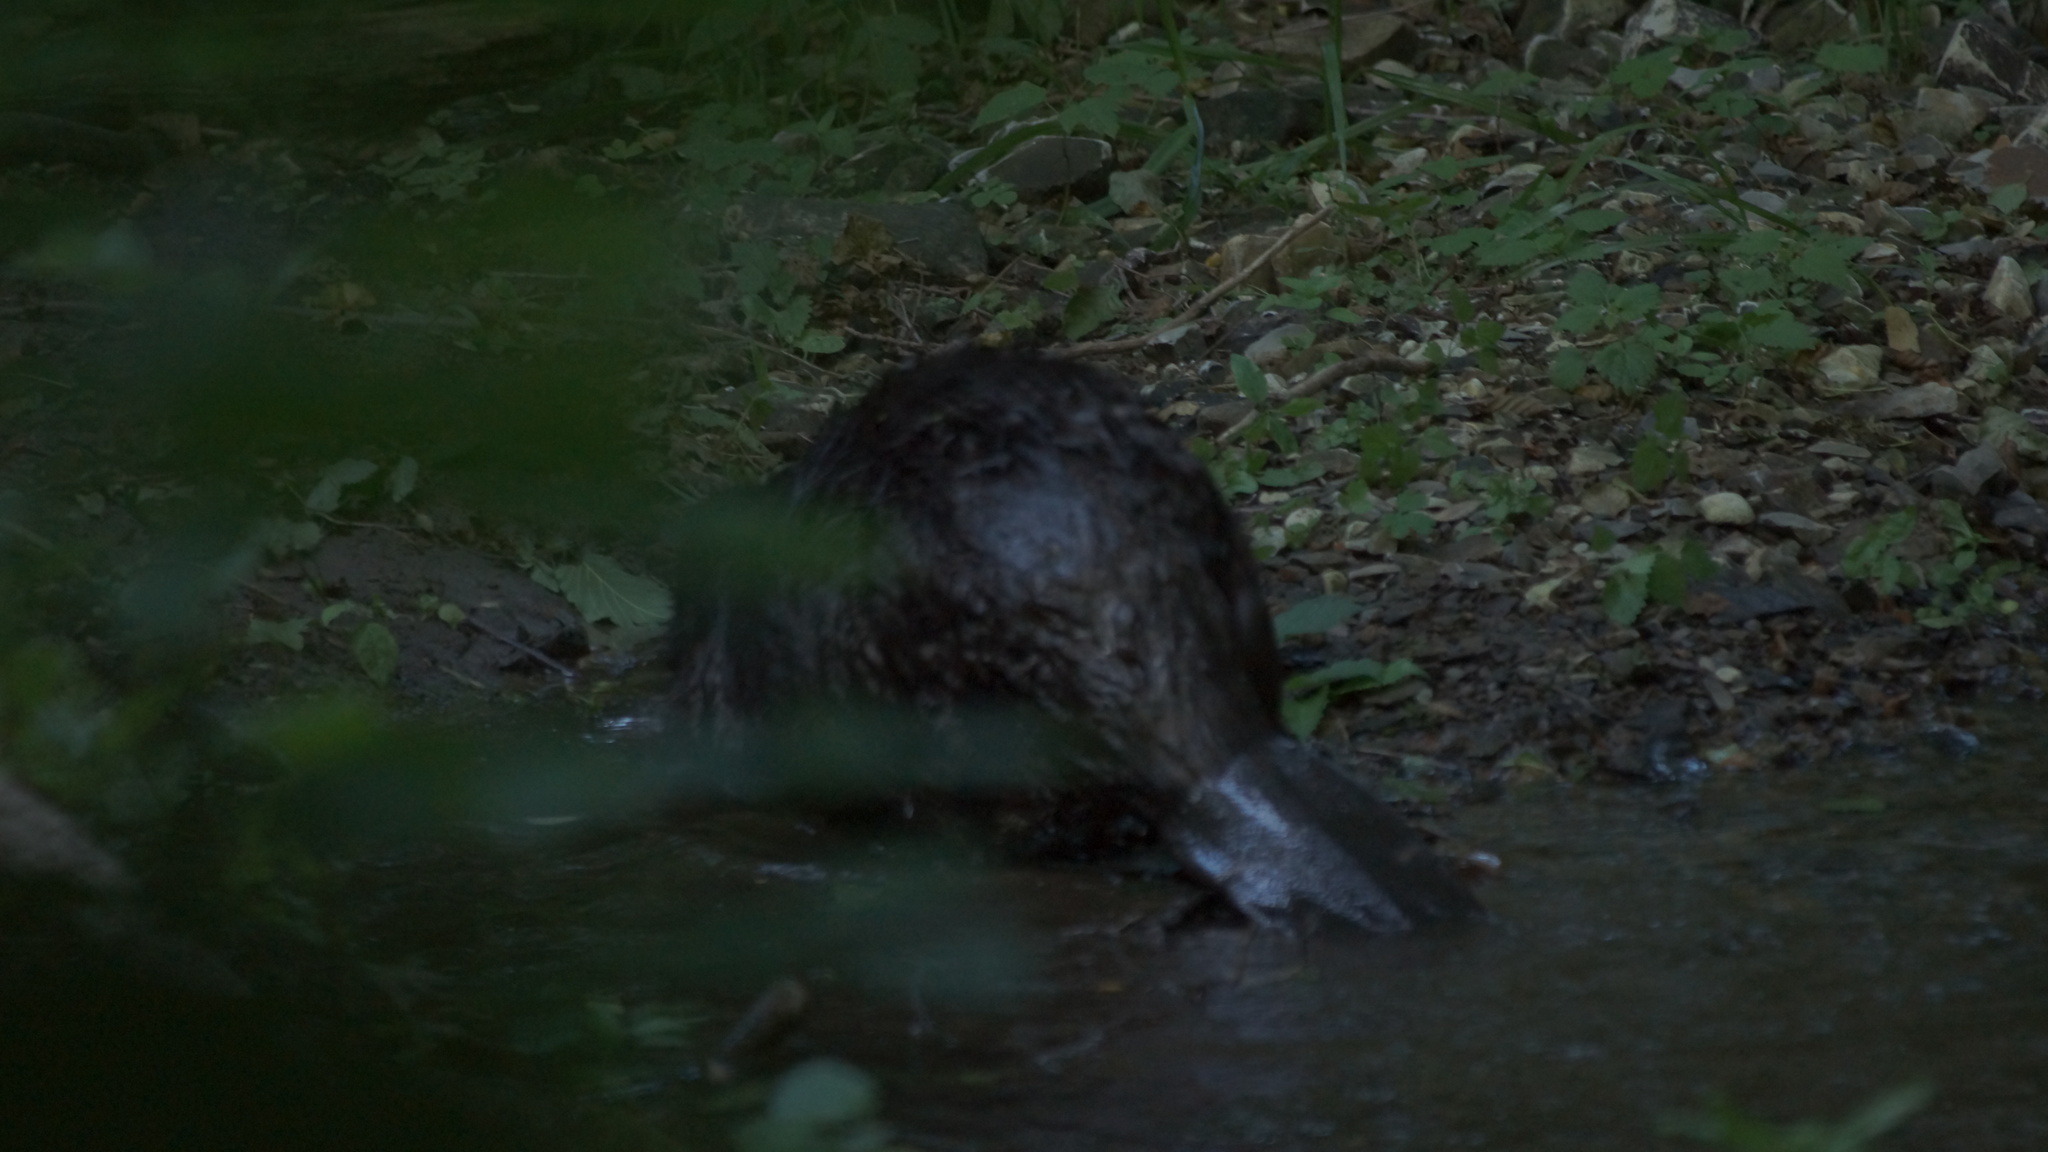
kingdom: Animalia
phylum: Chordata
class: Mammalia
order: Rodentia
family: Castoridae
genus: Castor
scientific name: Castor fiber
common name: Eurasian beaver
